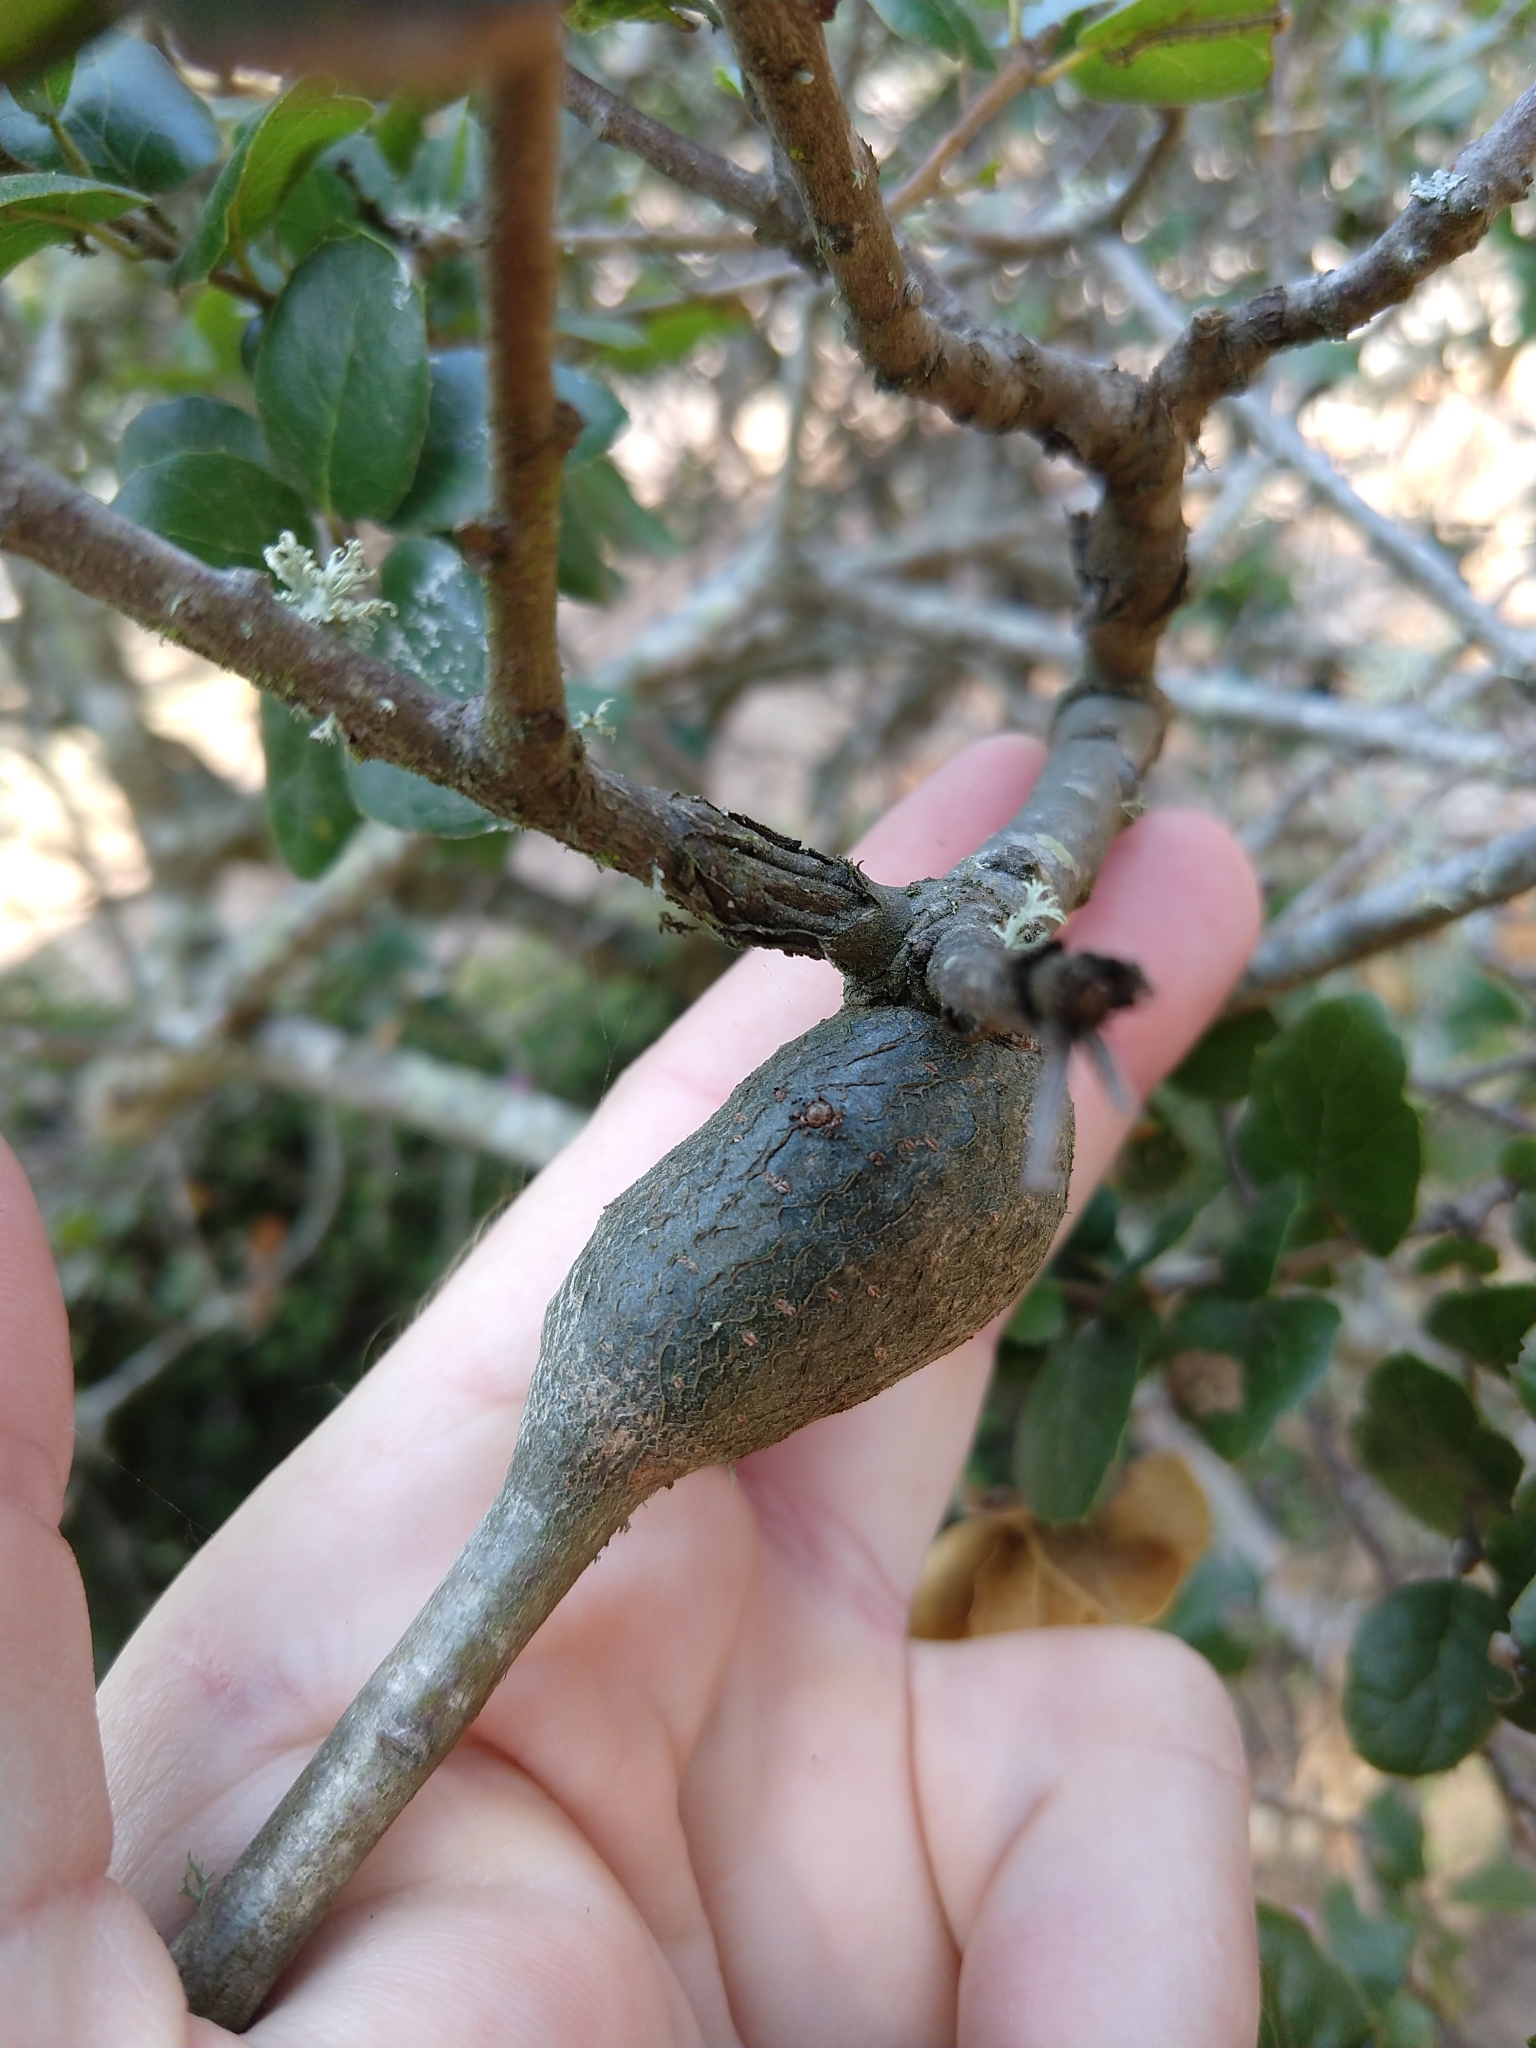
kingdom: Animalia
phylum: Arthropoda
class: Insecta
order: Hymenoptera
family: Cynipidae
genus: Callirhytis
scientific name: Callirhytis
